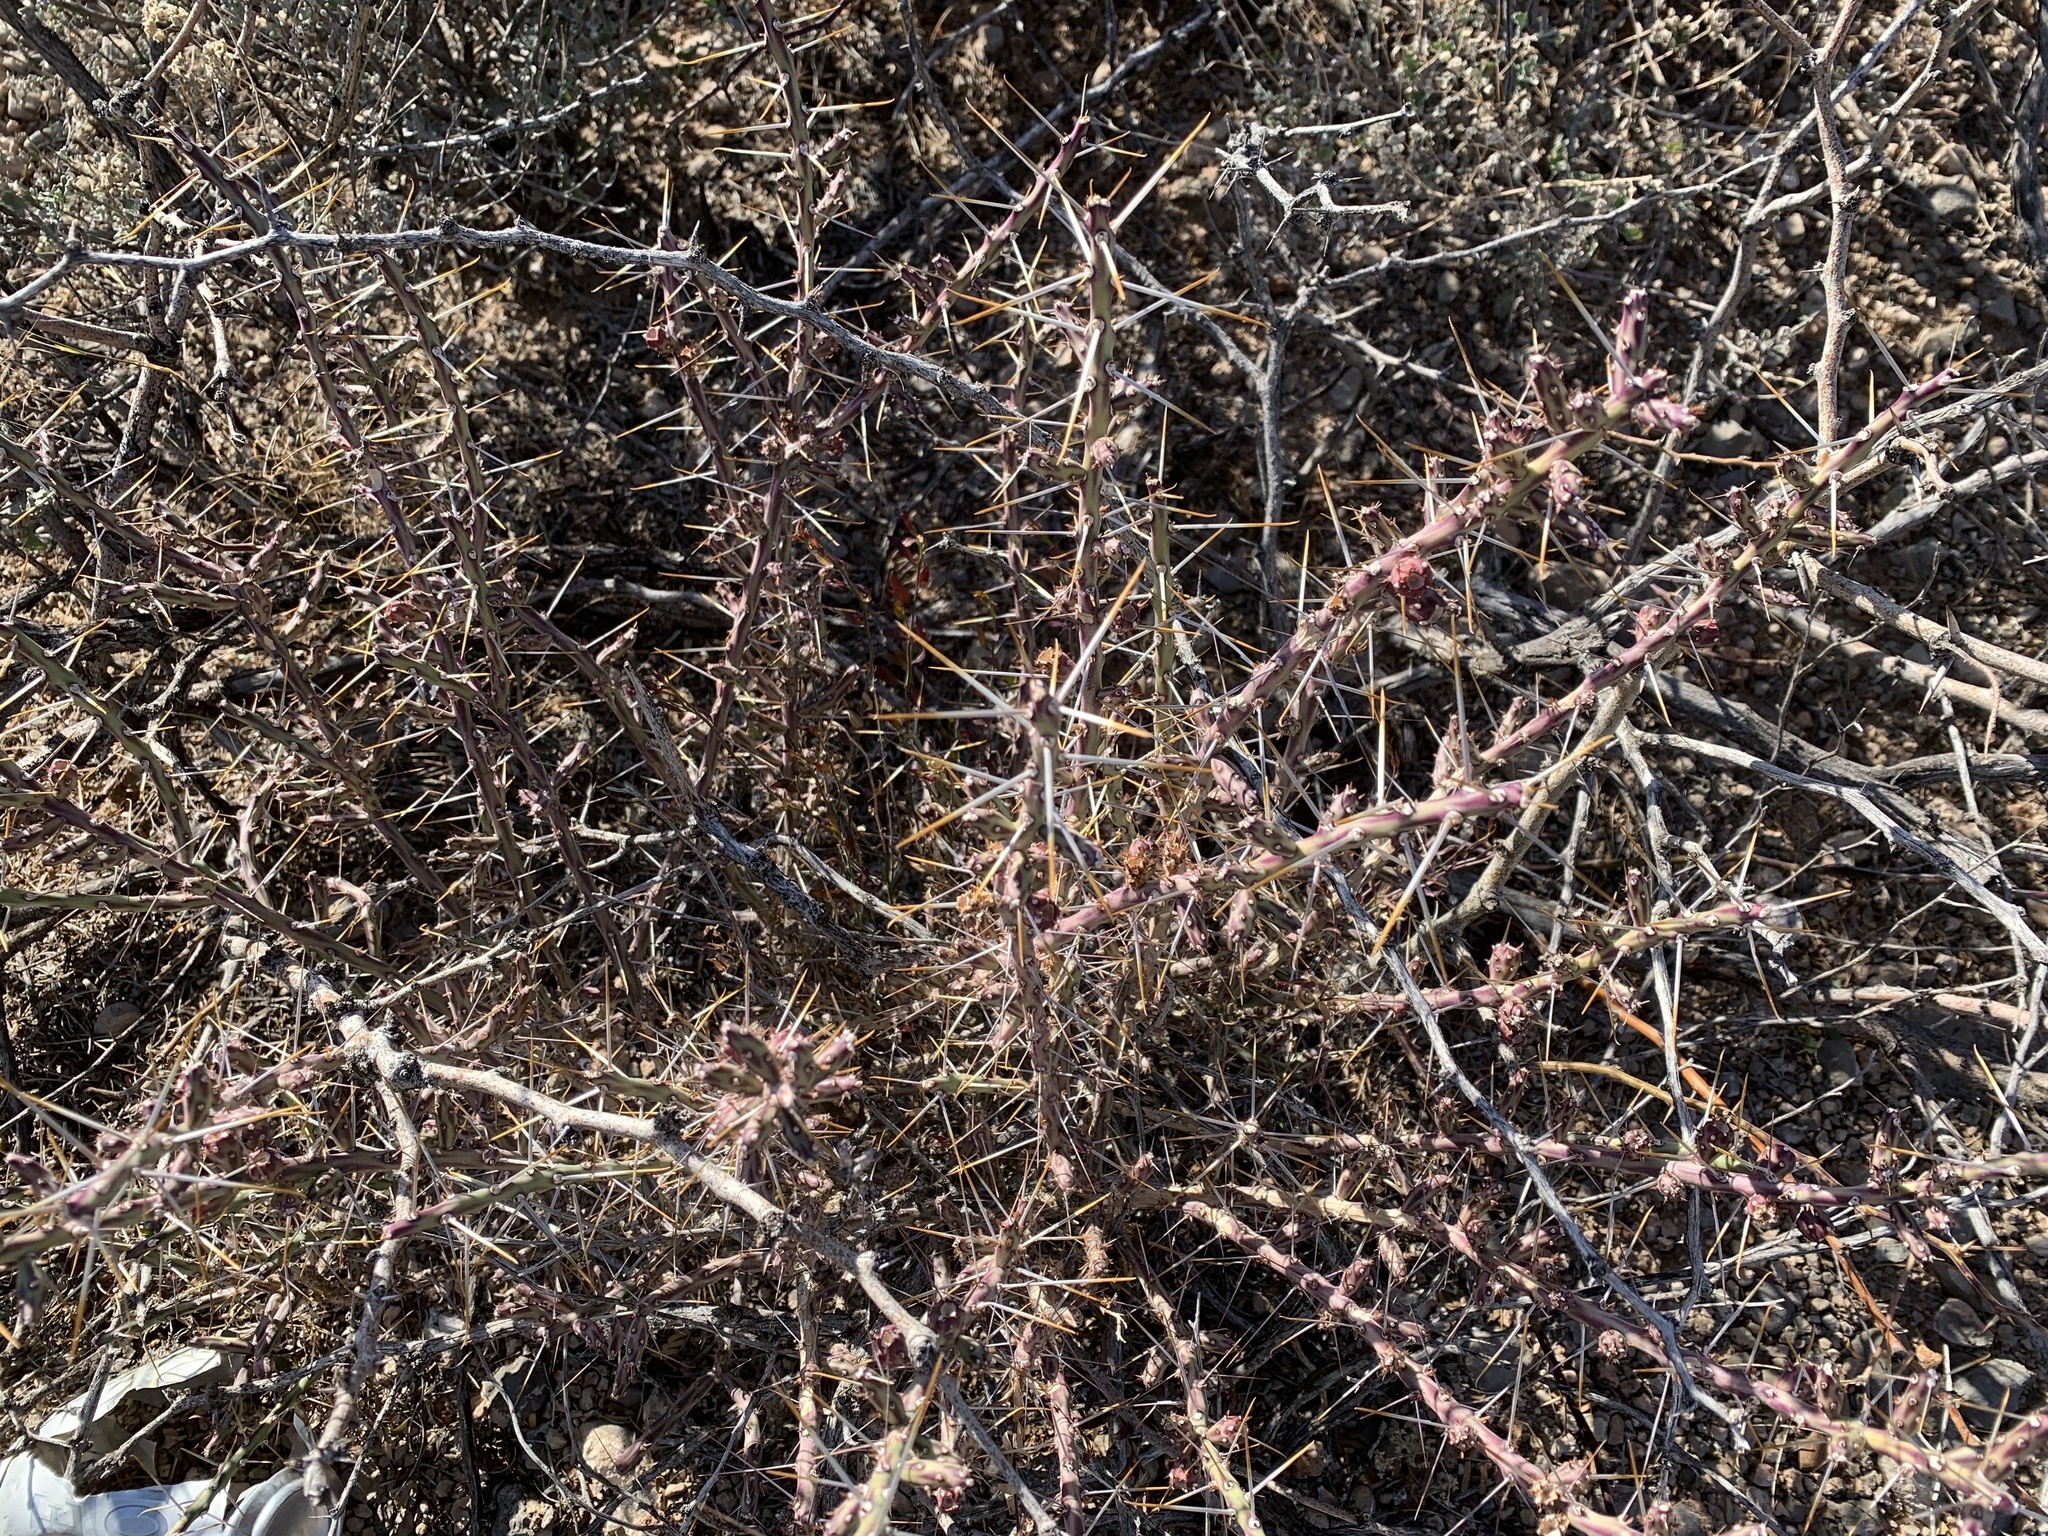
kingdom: Plantae
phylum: Tracheophyta
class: Magnoliopsida
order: Caryophyllales
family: Cactaceae
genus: Cylindropuntia
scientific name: Cylindropuntia leptocaulis
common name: Christmas cactus
